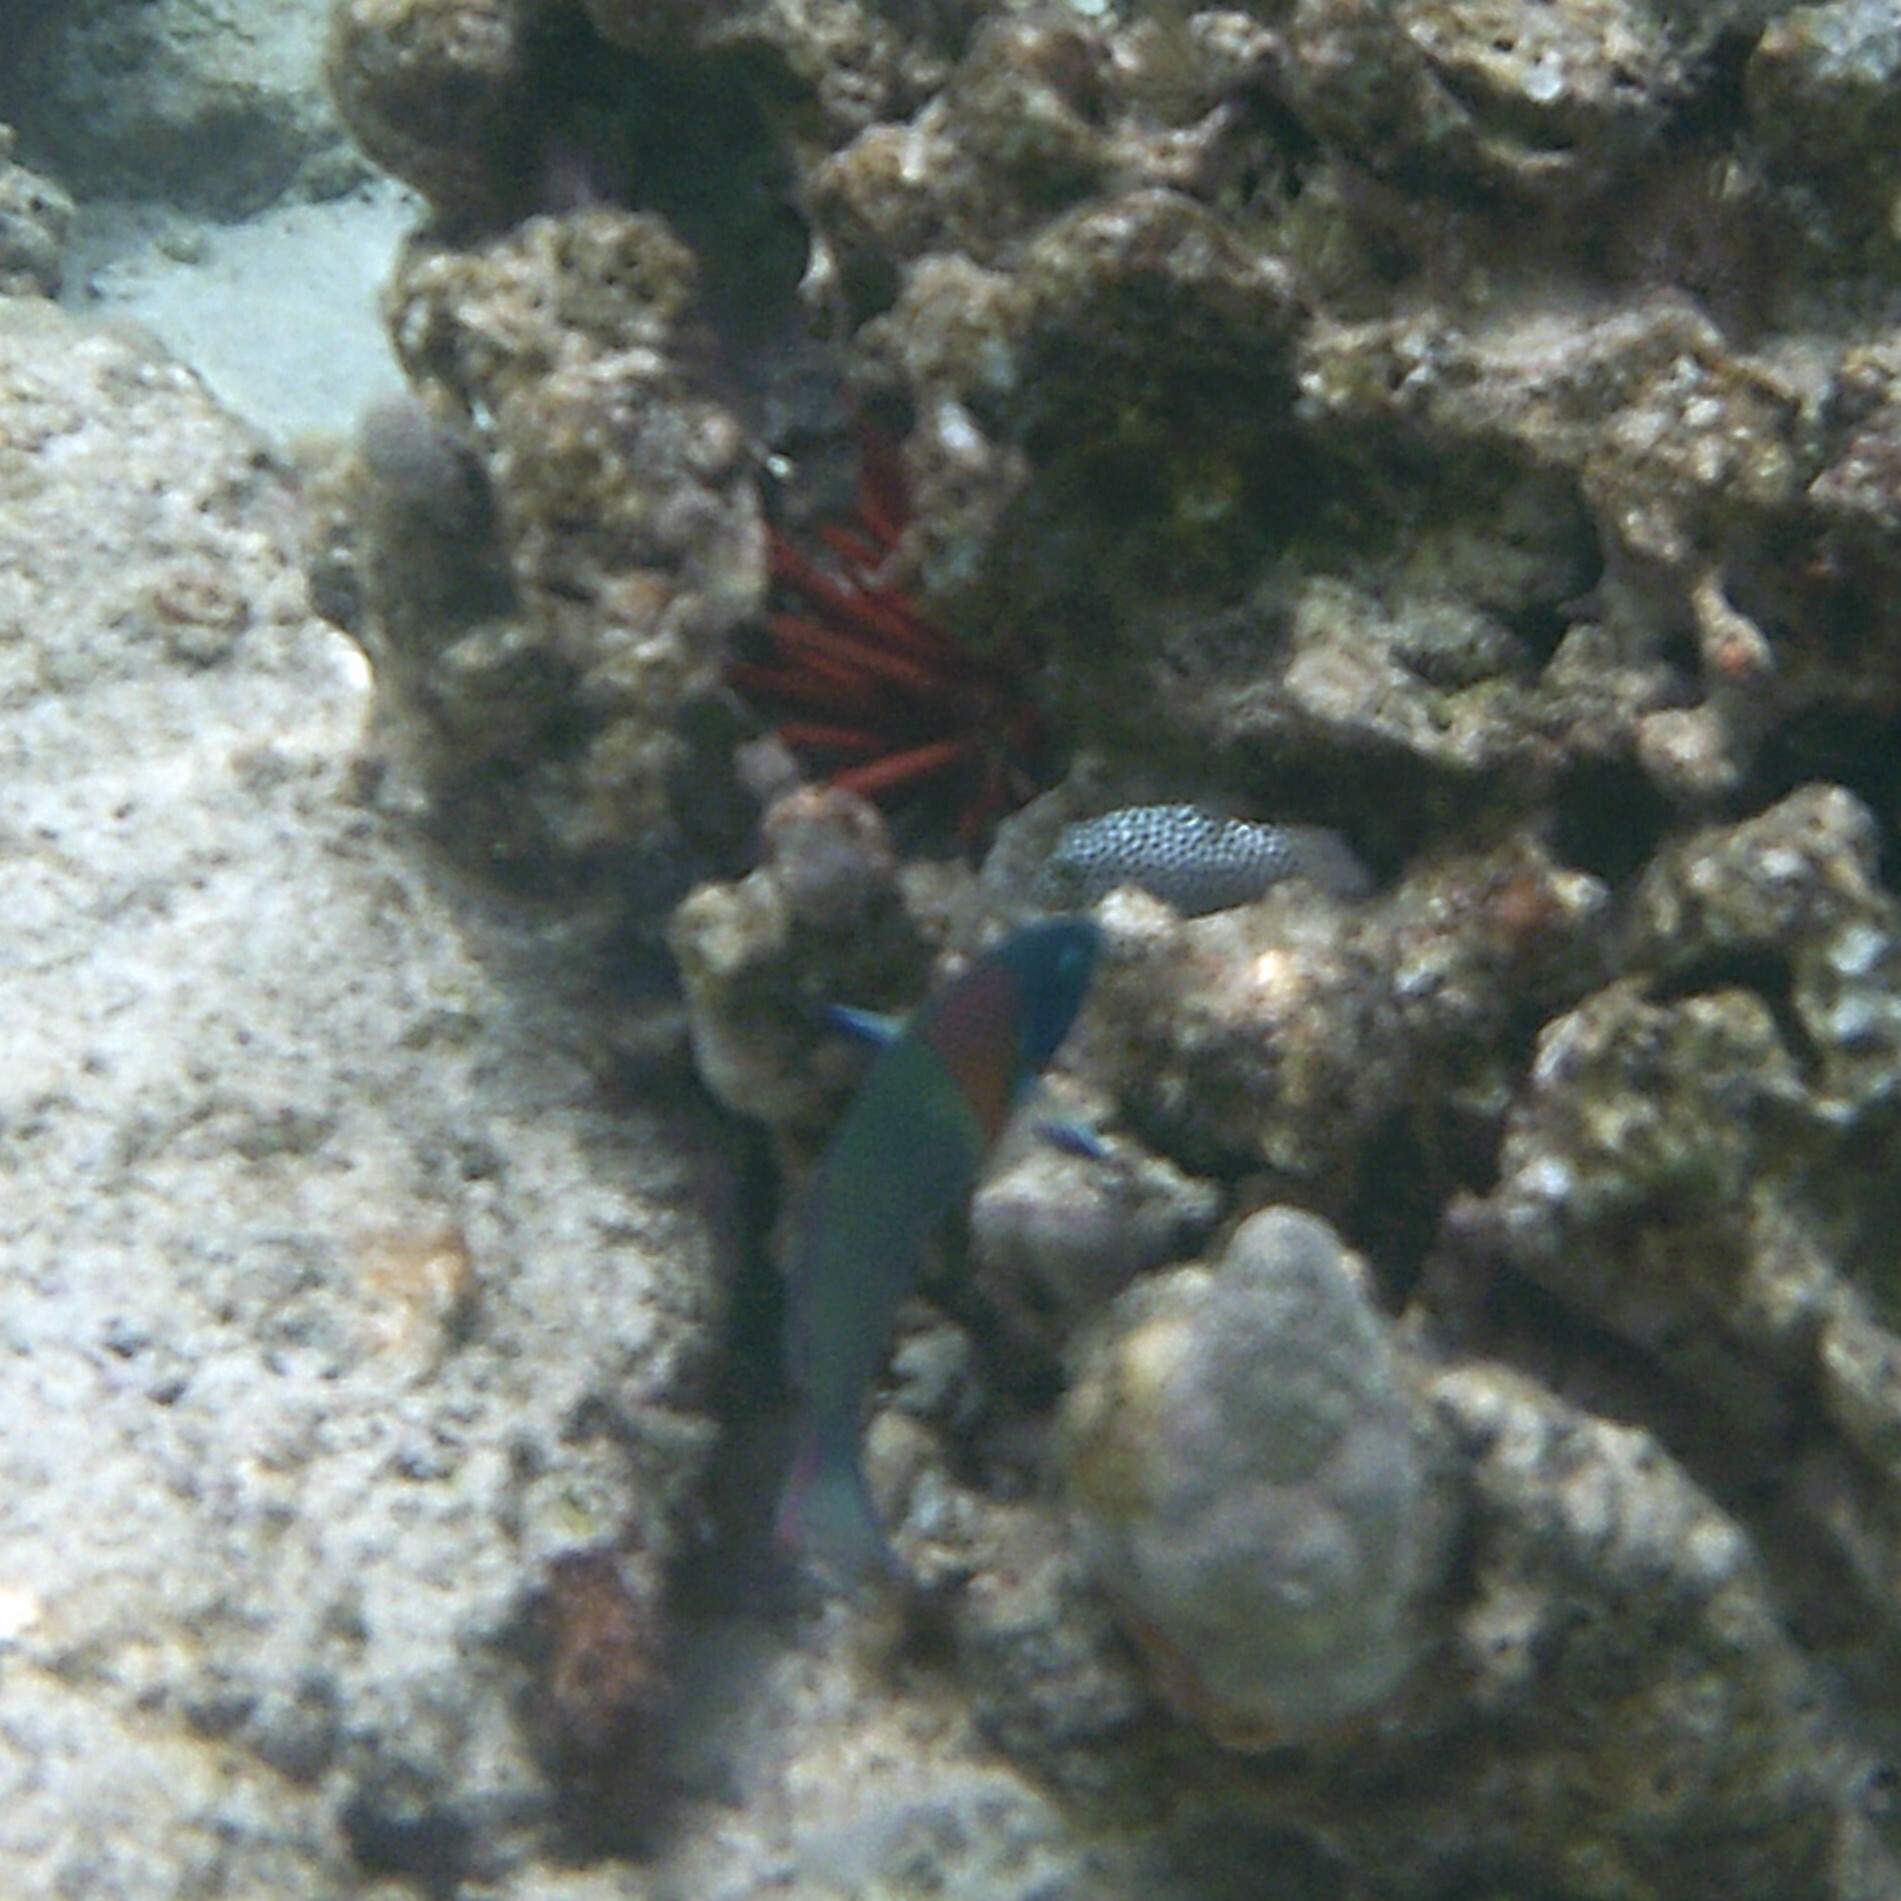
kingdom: Animalia
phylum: Chordata
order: Tetraodontiformes
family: Tetraodontidae
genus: Canthigaster
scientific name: Canthigaster jactator
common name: Hawaiian whitespotted toby
